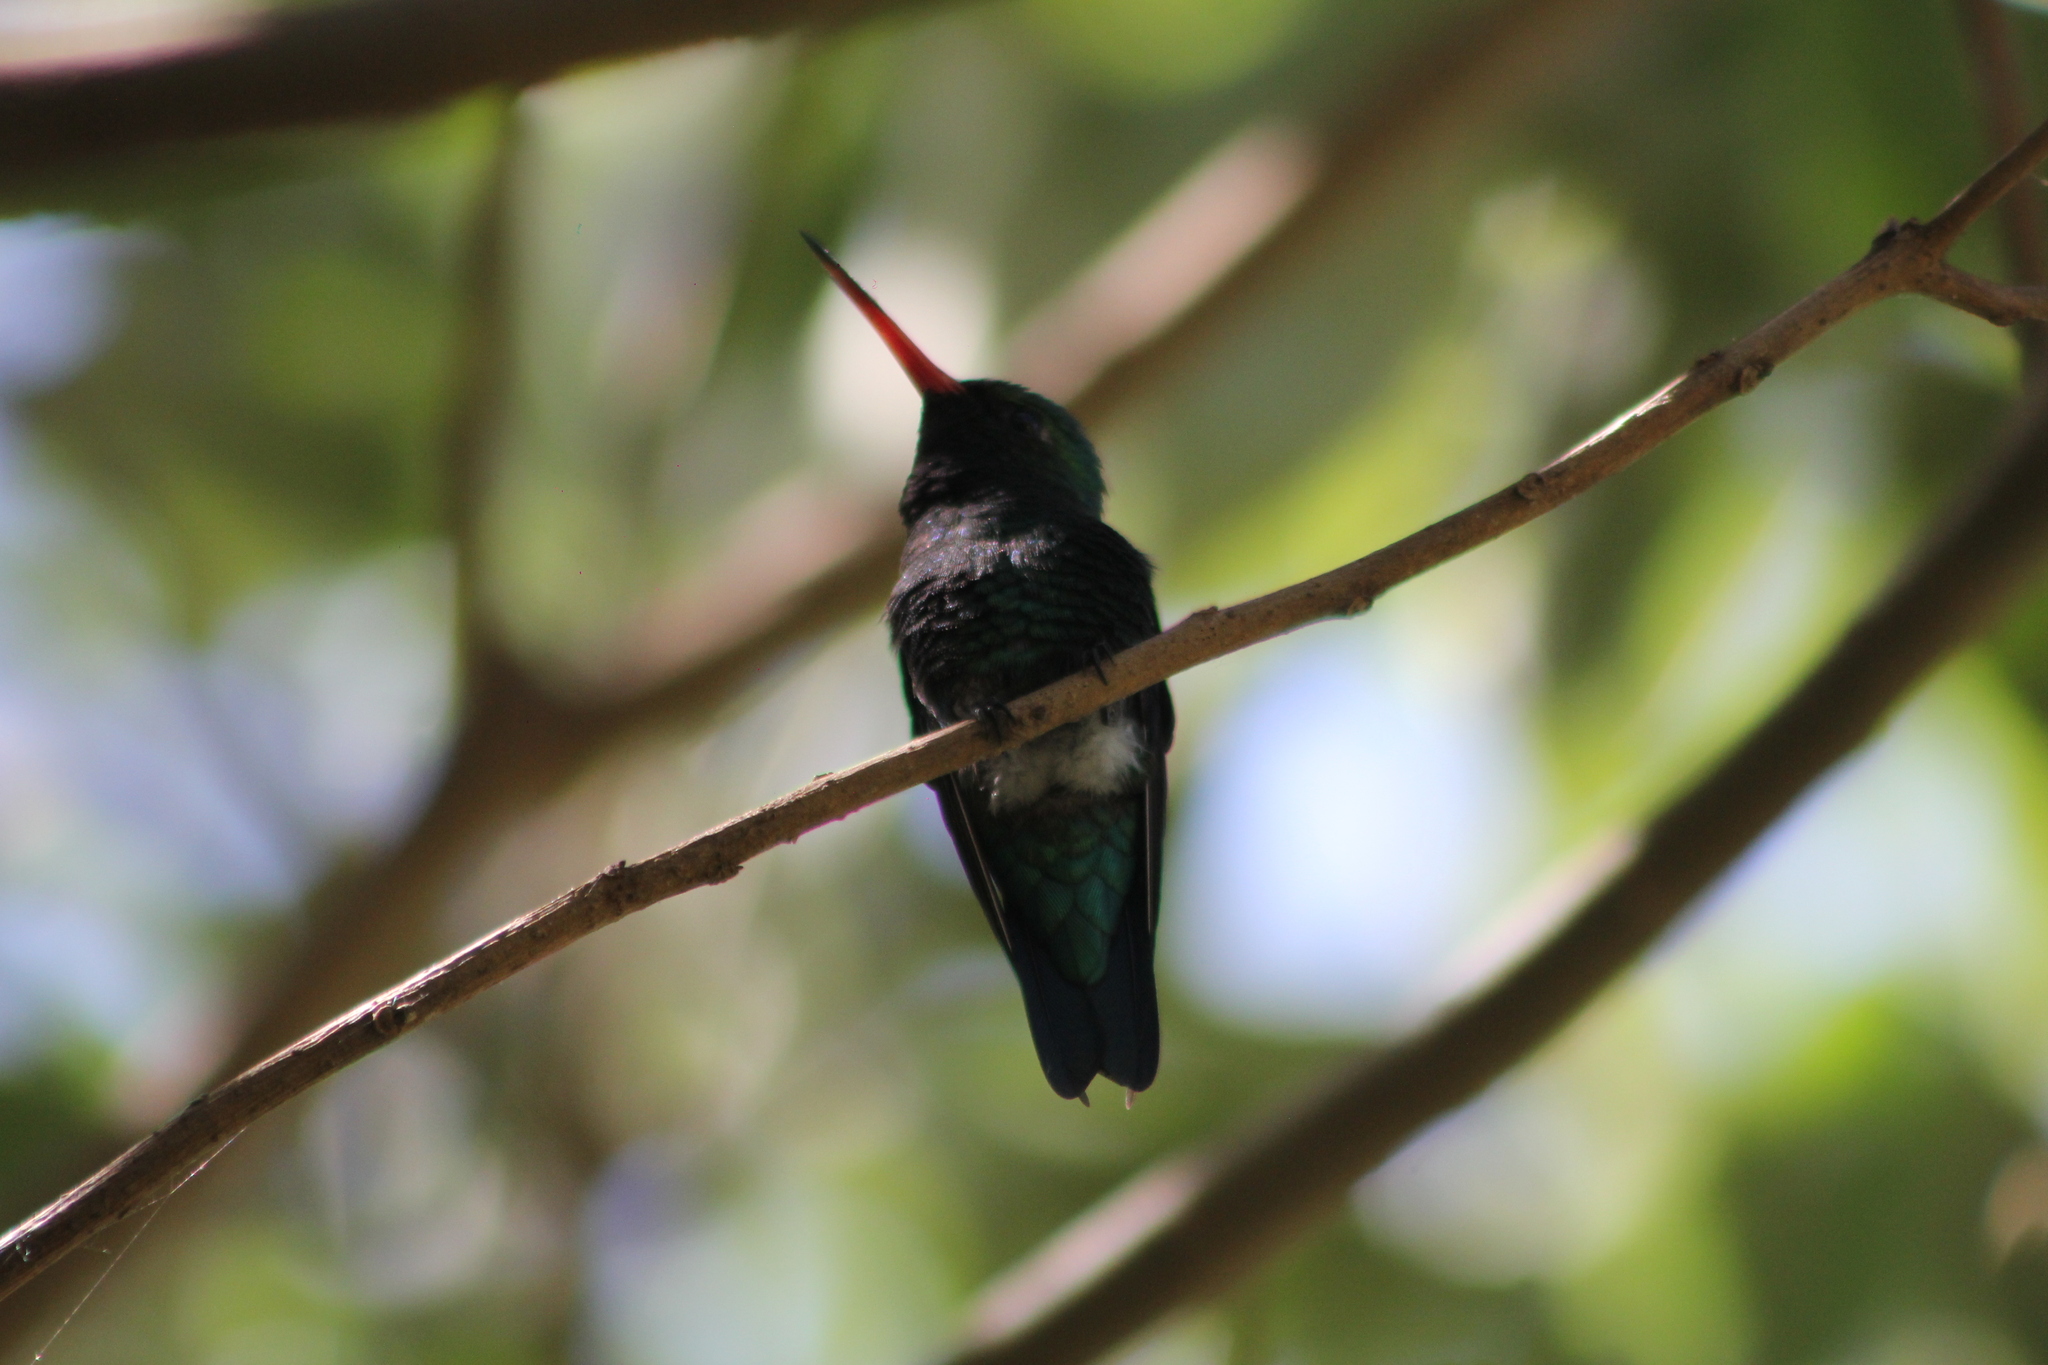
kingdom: Animalia
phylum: Chordata
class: Aves
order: Apodiformes
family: Trochilidae
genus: Chlorostilbon
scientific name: Chlorostilbon lucidus
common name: Glittering-bellied emerald
